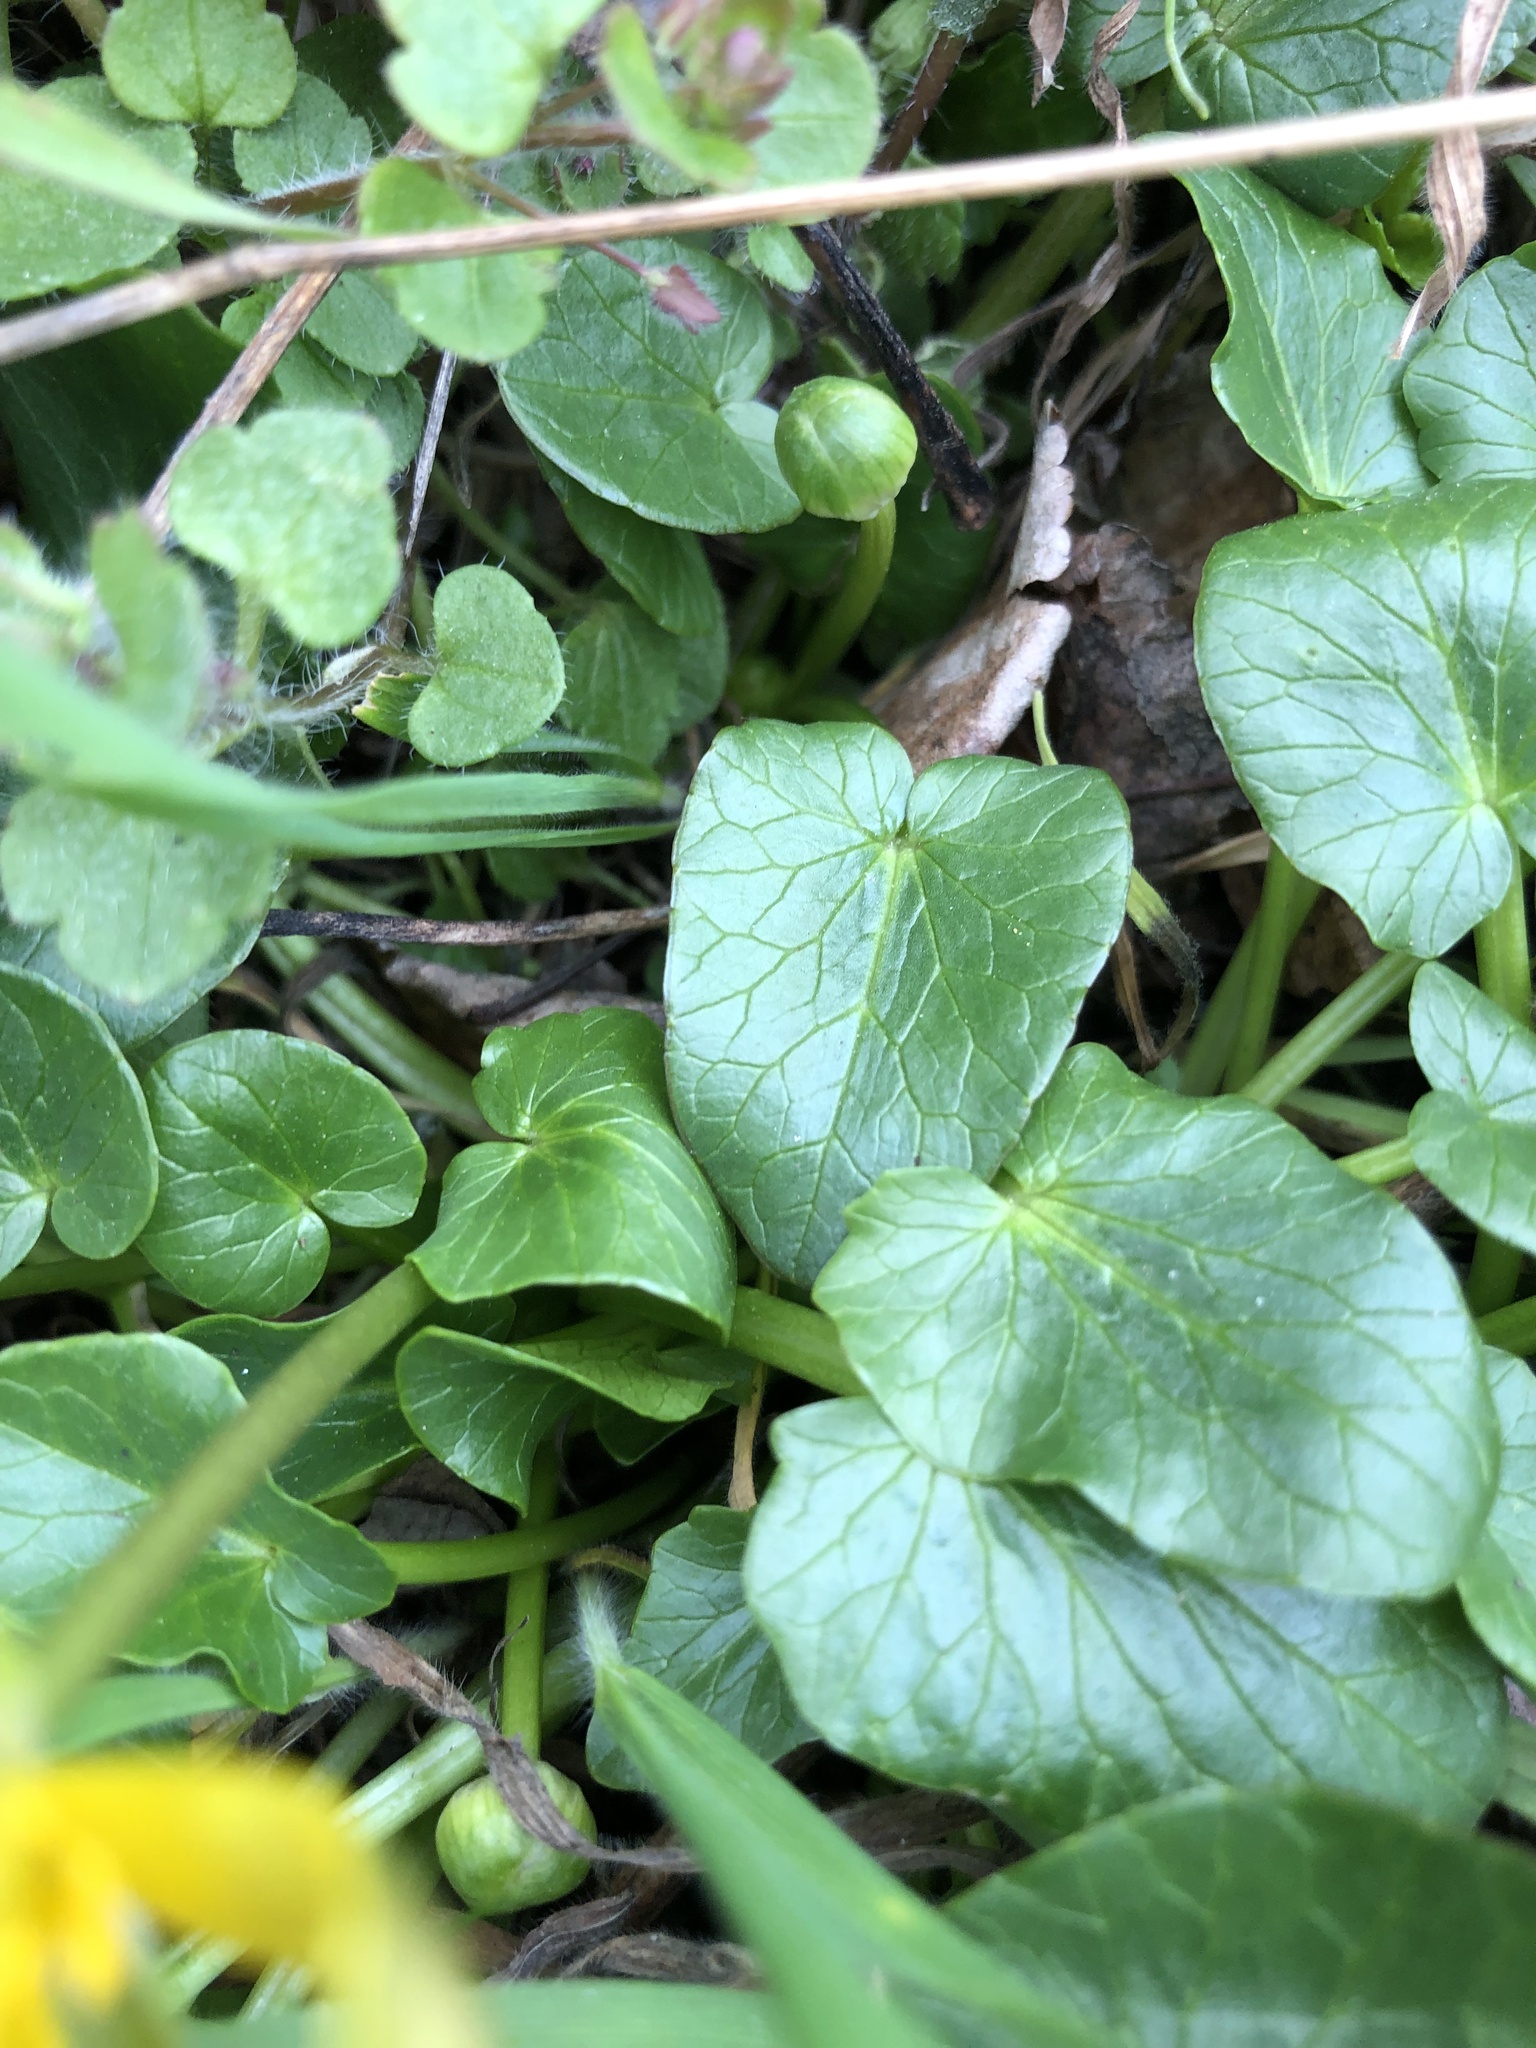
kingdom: Plantae
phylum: Tracheophyta
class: Magnoliopsida
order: Ranunculales
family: Ranunculaceae
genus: Ficaria
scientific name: Ficaria verna
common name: Lesser celandine
